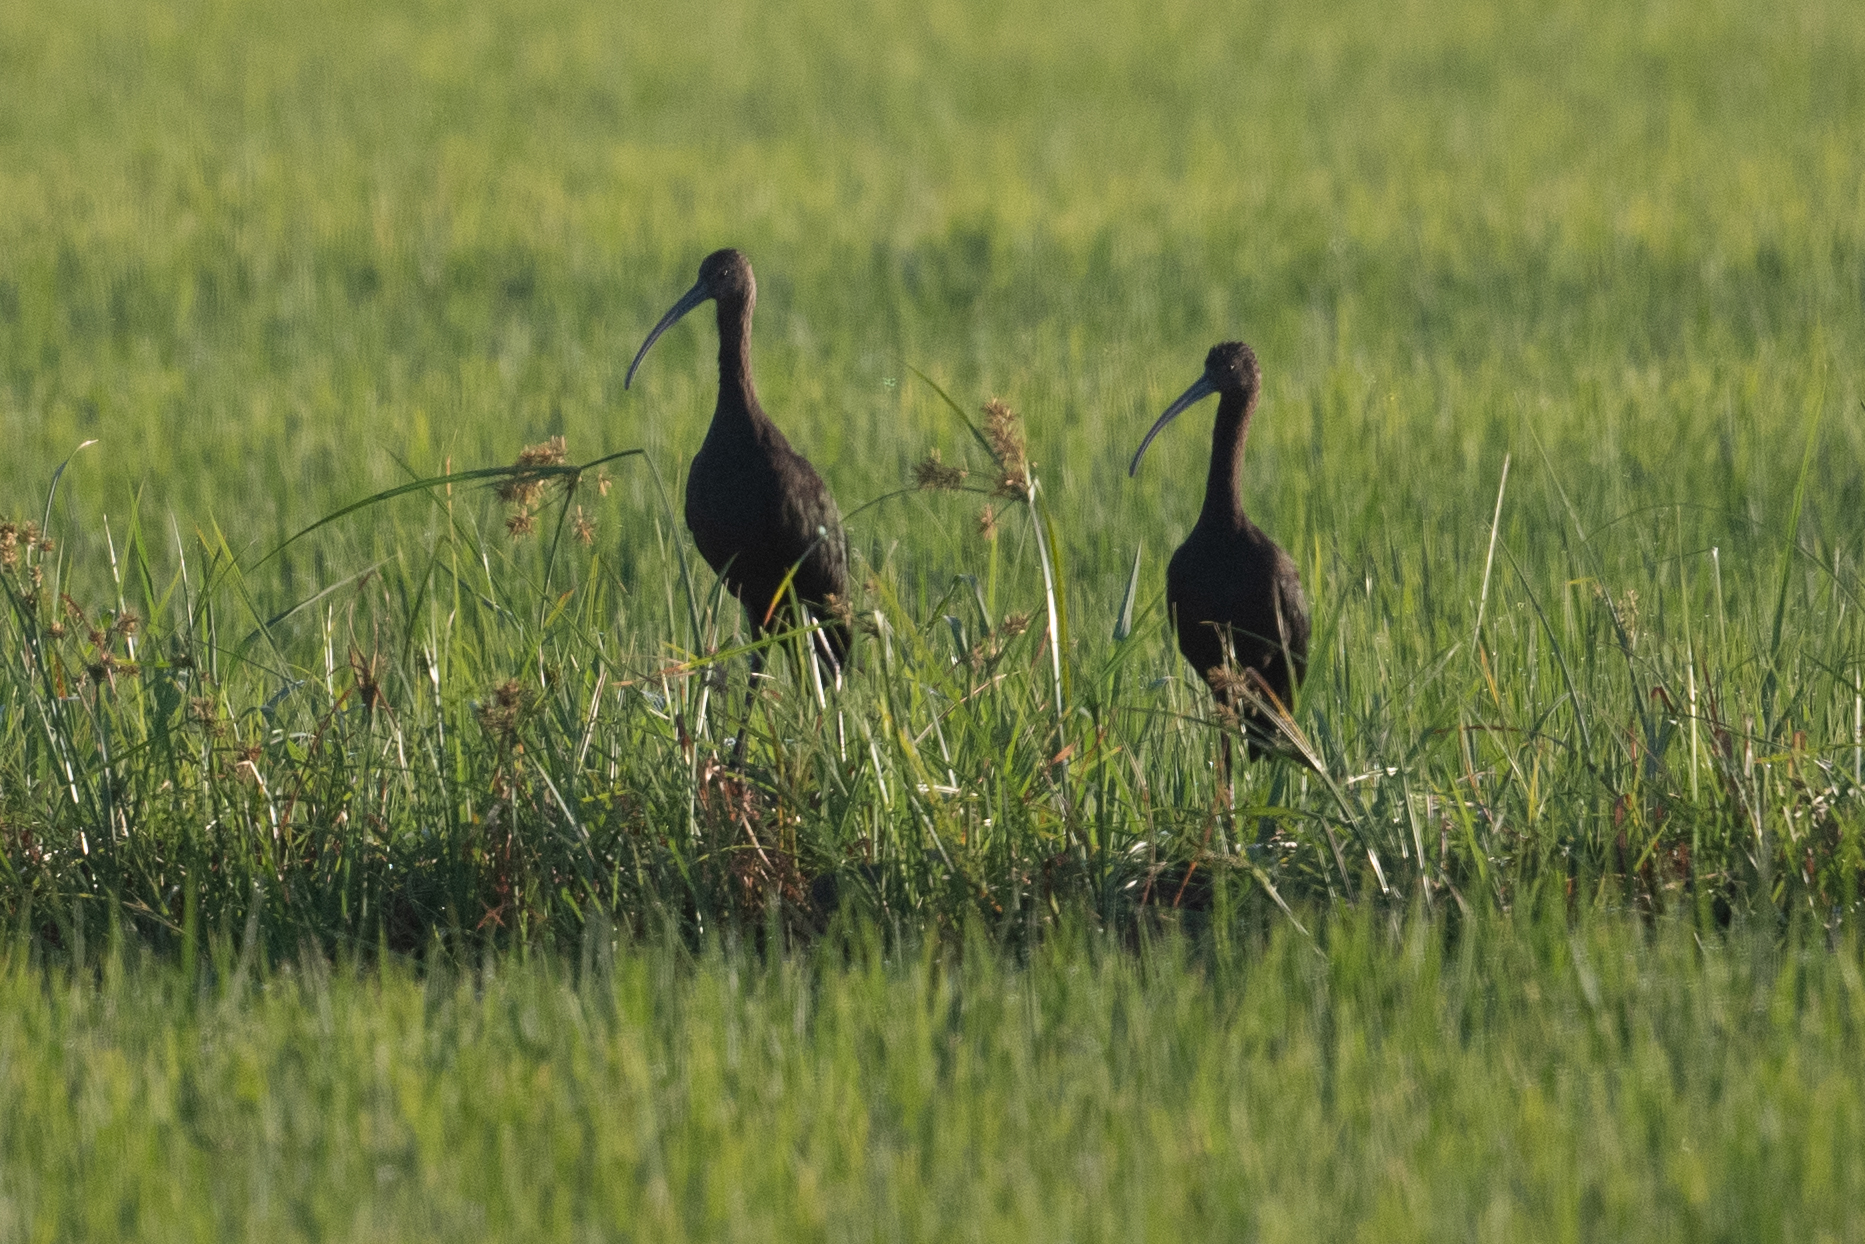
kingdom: Animalia
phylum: Chordata
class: Aves
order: Pelecaniformes
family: Threskiornithidae
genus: Plegadis
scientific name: Plegadis chihi
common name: White-faced ibis
